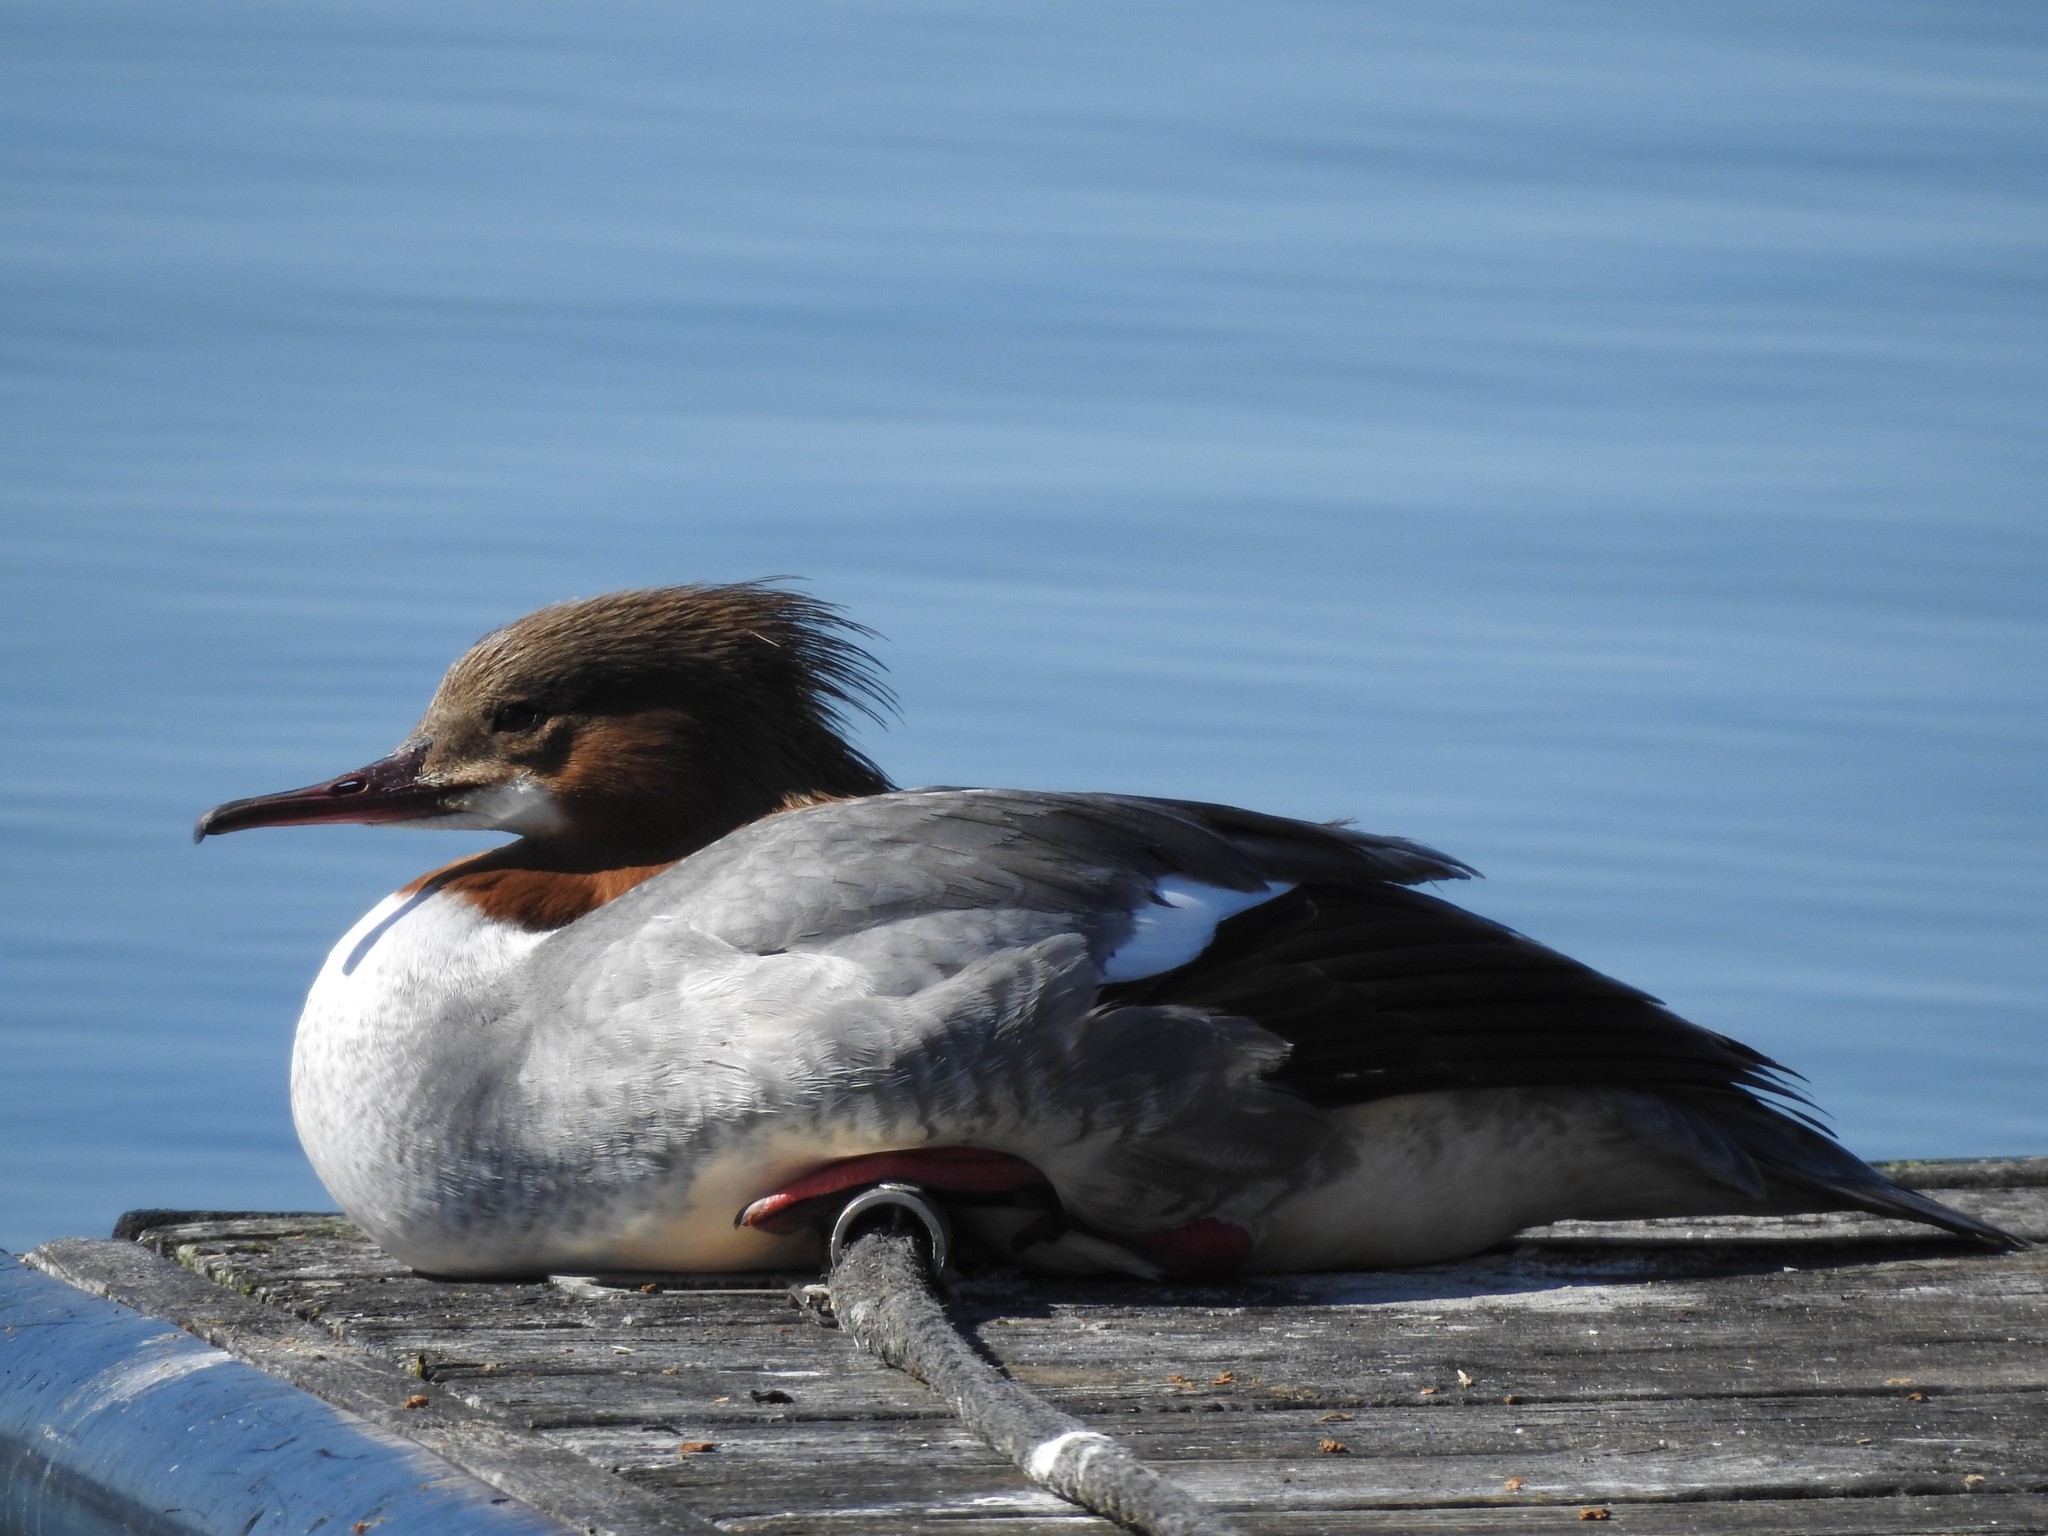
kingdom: Animalia
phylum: Chordata
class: Aves
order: Anseriformes
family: Anatidae
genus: Mergus
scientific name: Mergus merganser
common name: Common merganser
